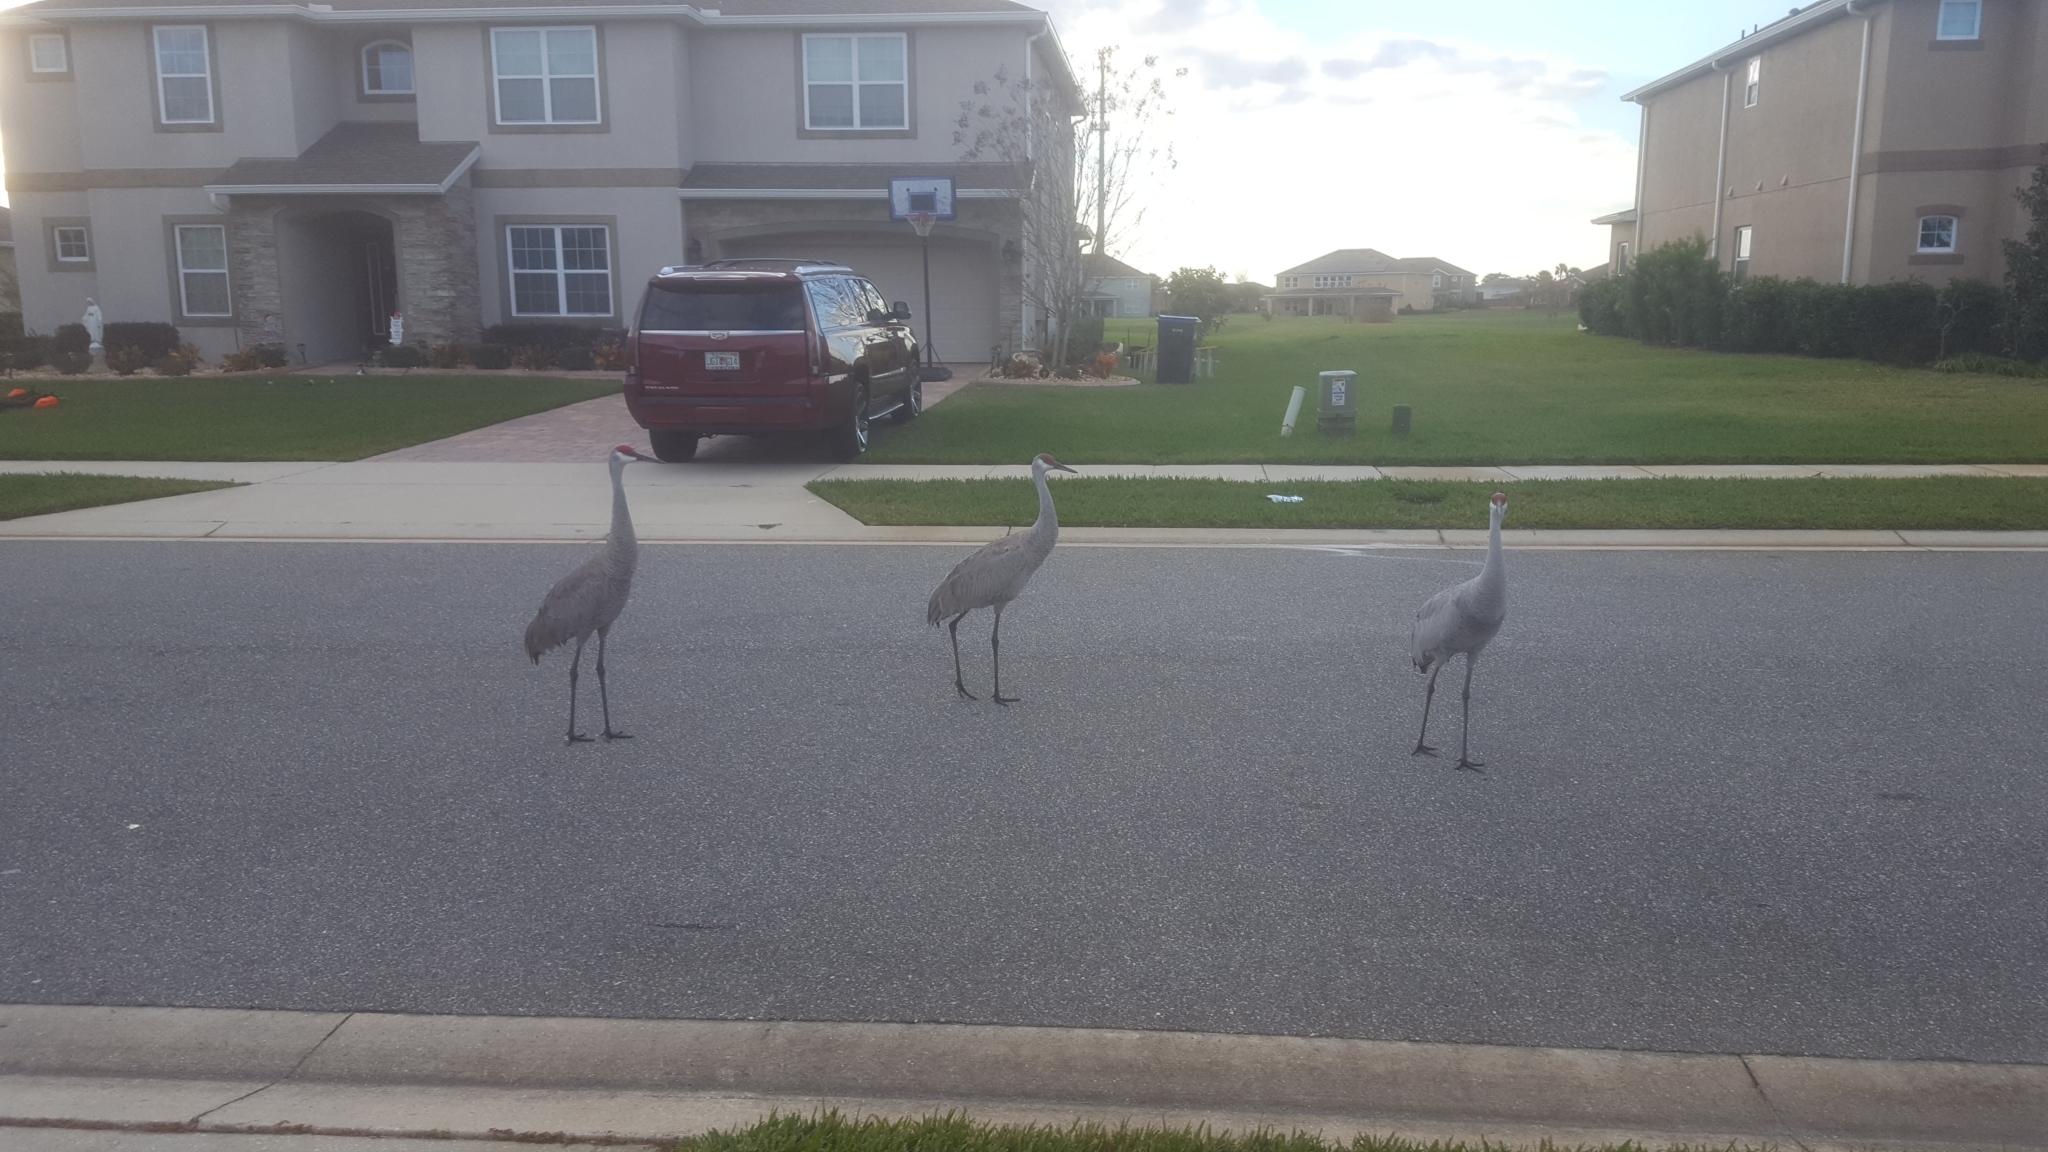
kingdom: Animalia
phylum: Chordata
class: Aves
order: Gruiformes
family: Gruidae
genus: Grus
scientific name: Grus canadensis
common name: Sandhill crane
